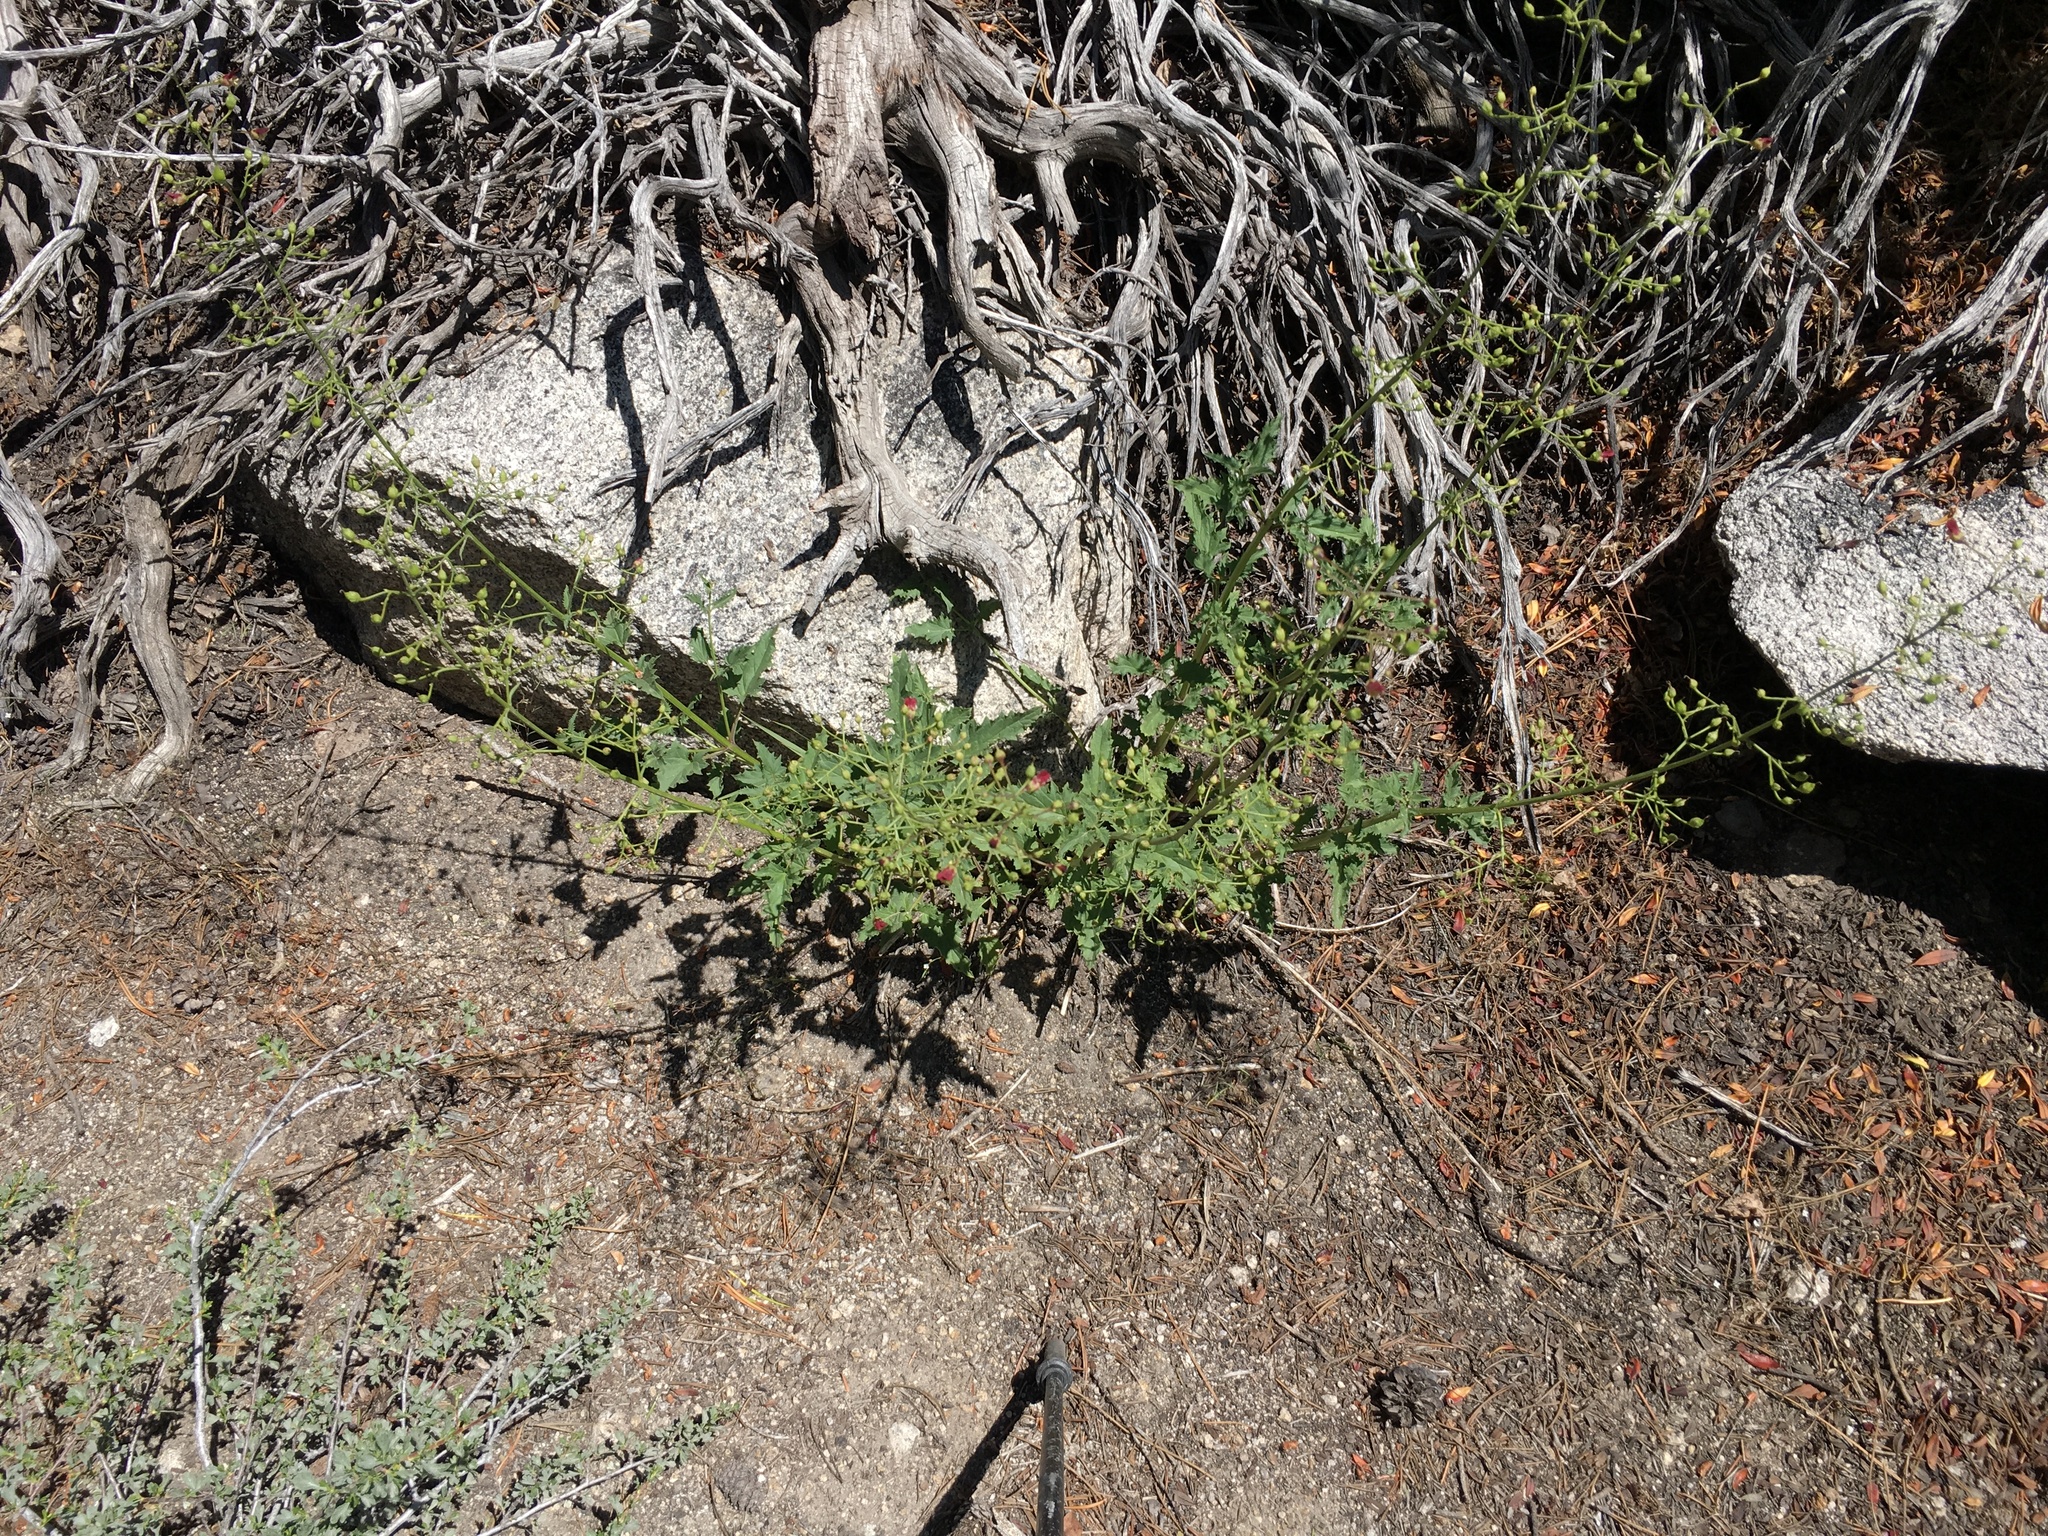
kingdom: Plantae
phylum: Tracheophyta
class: Magnoliopsida
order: Lamiales
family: Scrophulariaceae
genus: Scrophularia
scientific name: Scrophularia desertorum
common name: Desert figwort
